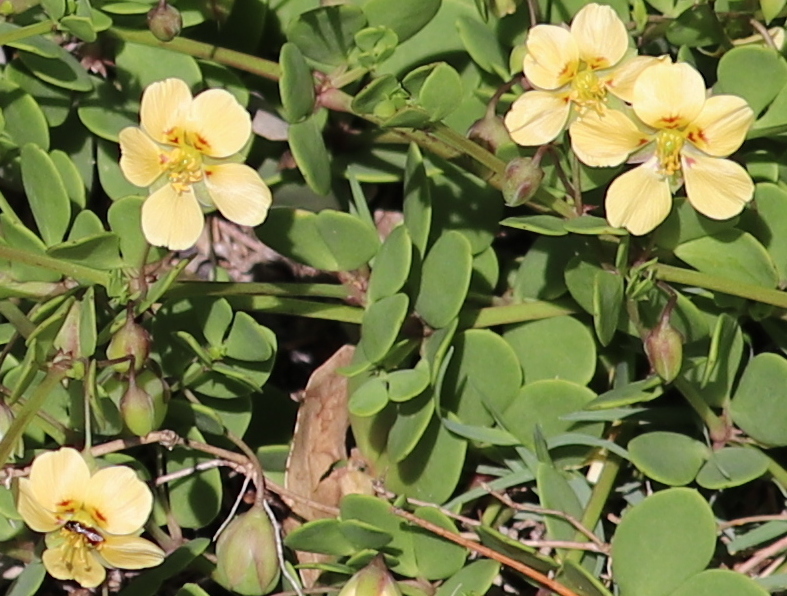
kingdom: Plantae
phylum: Tracheophyta
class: Magnoliopsida
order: Zygophyllales
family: Zygophyllaceae
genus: Roepera
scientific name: Roepera maritima
